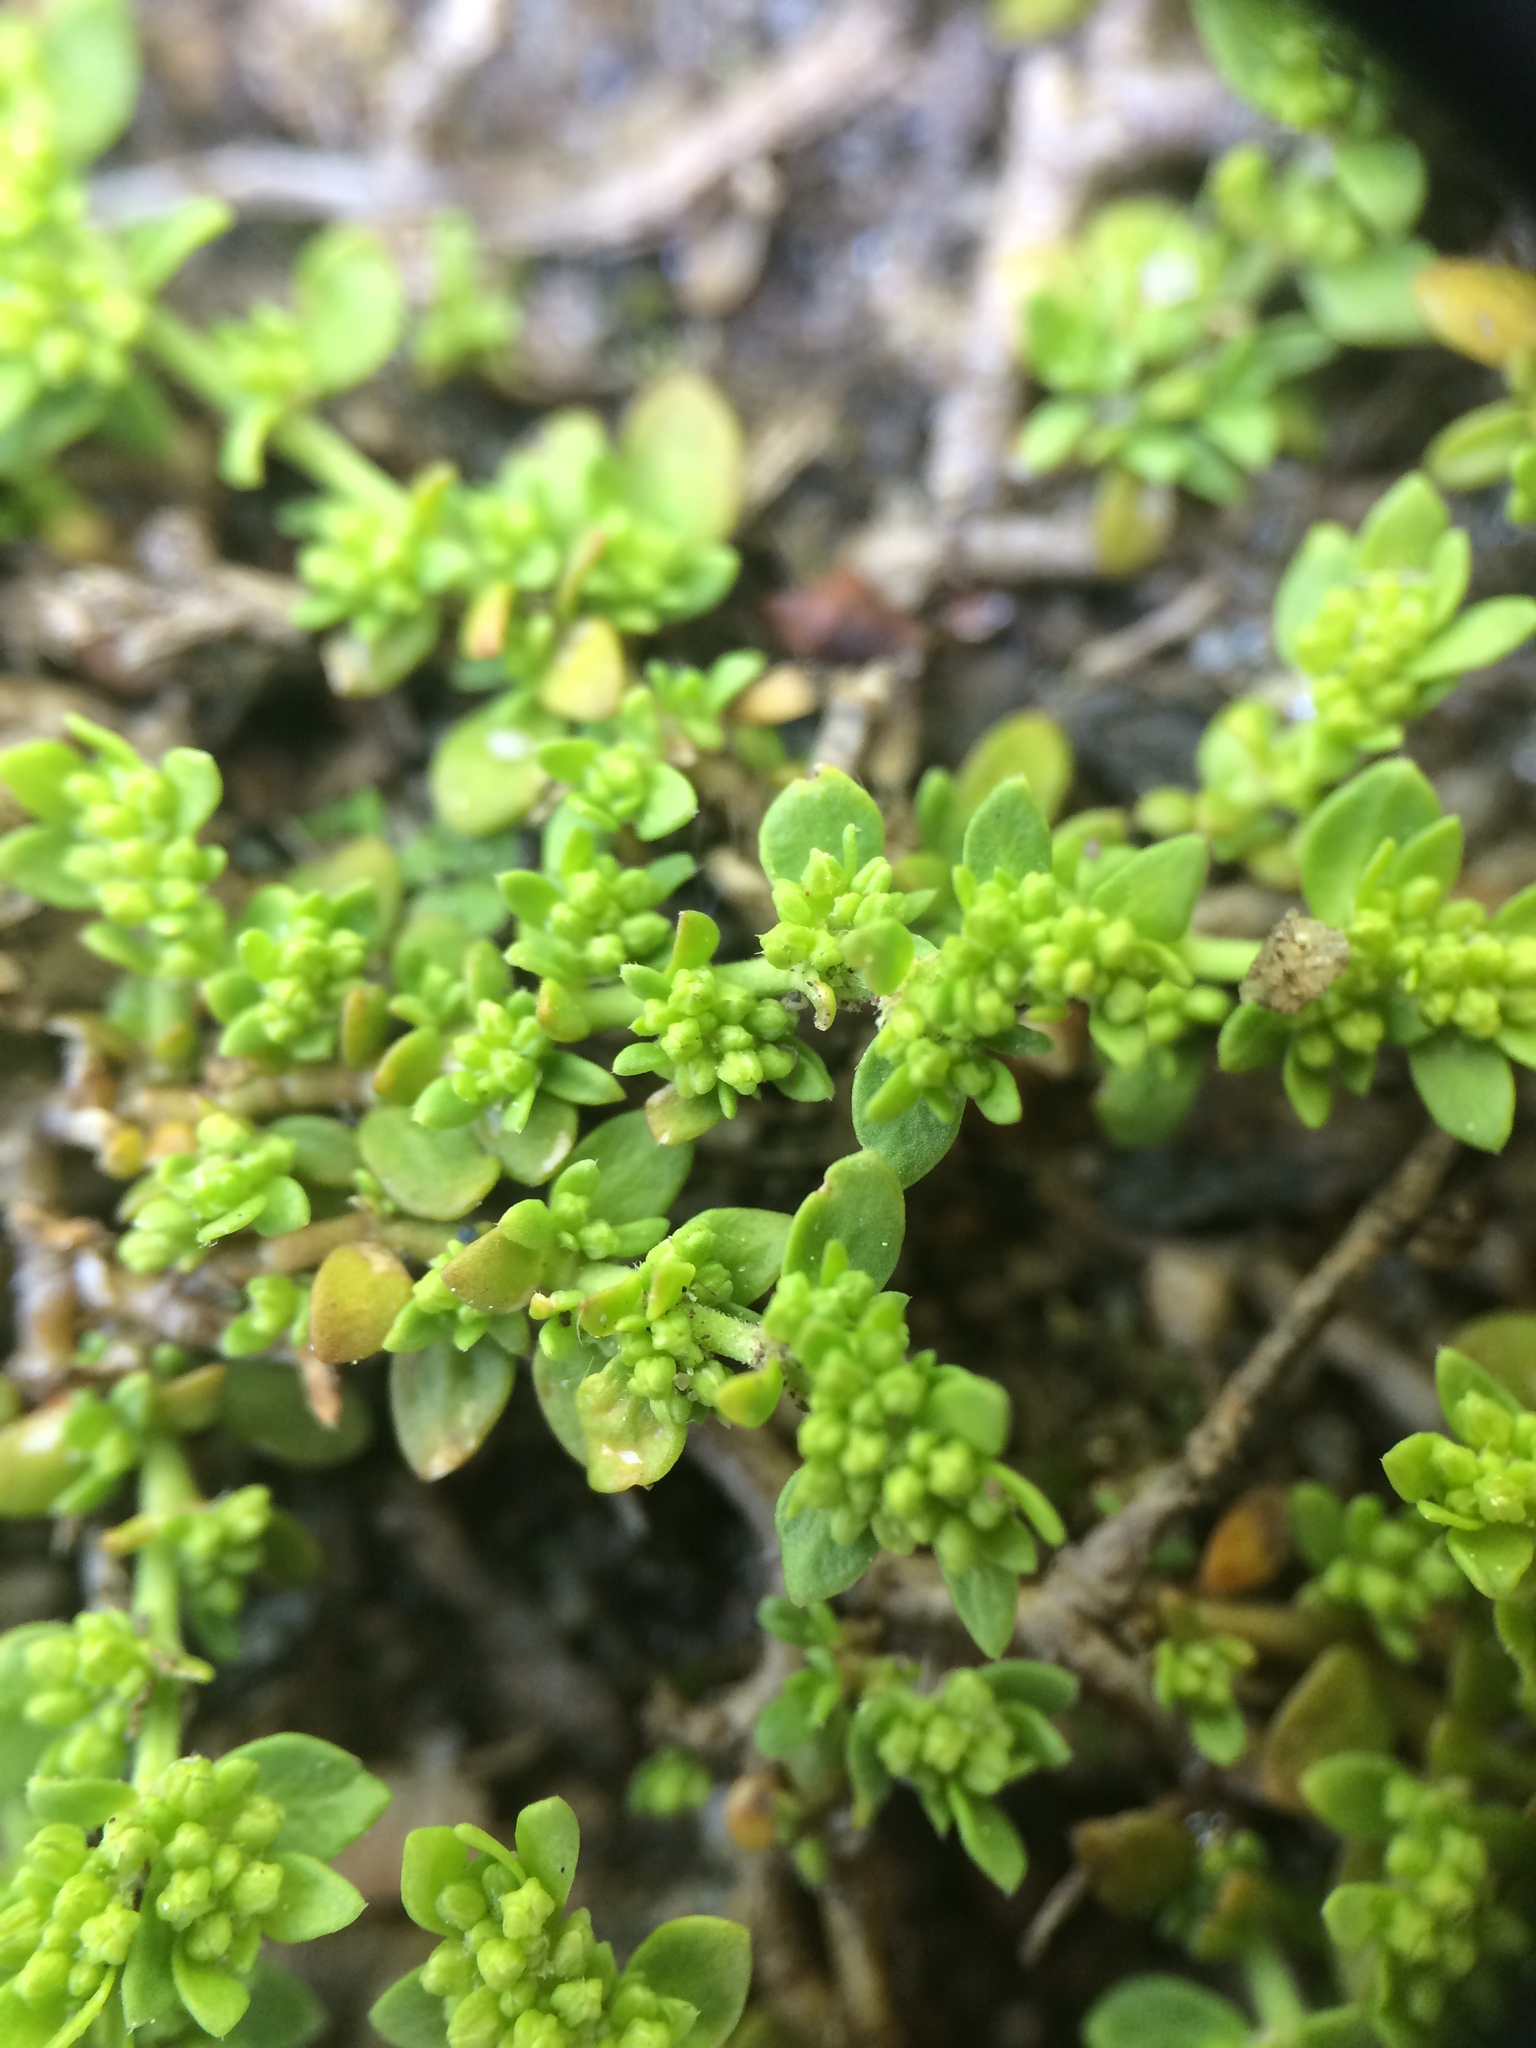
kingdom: Plantae
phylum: Tracheophyta
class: Magnoliopsida
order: Caryophyllales
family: Caryophyllaceae
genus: Herniaria
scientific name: Herniaria glabra
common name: Smooth rupturewort
